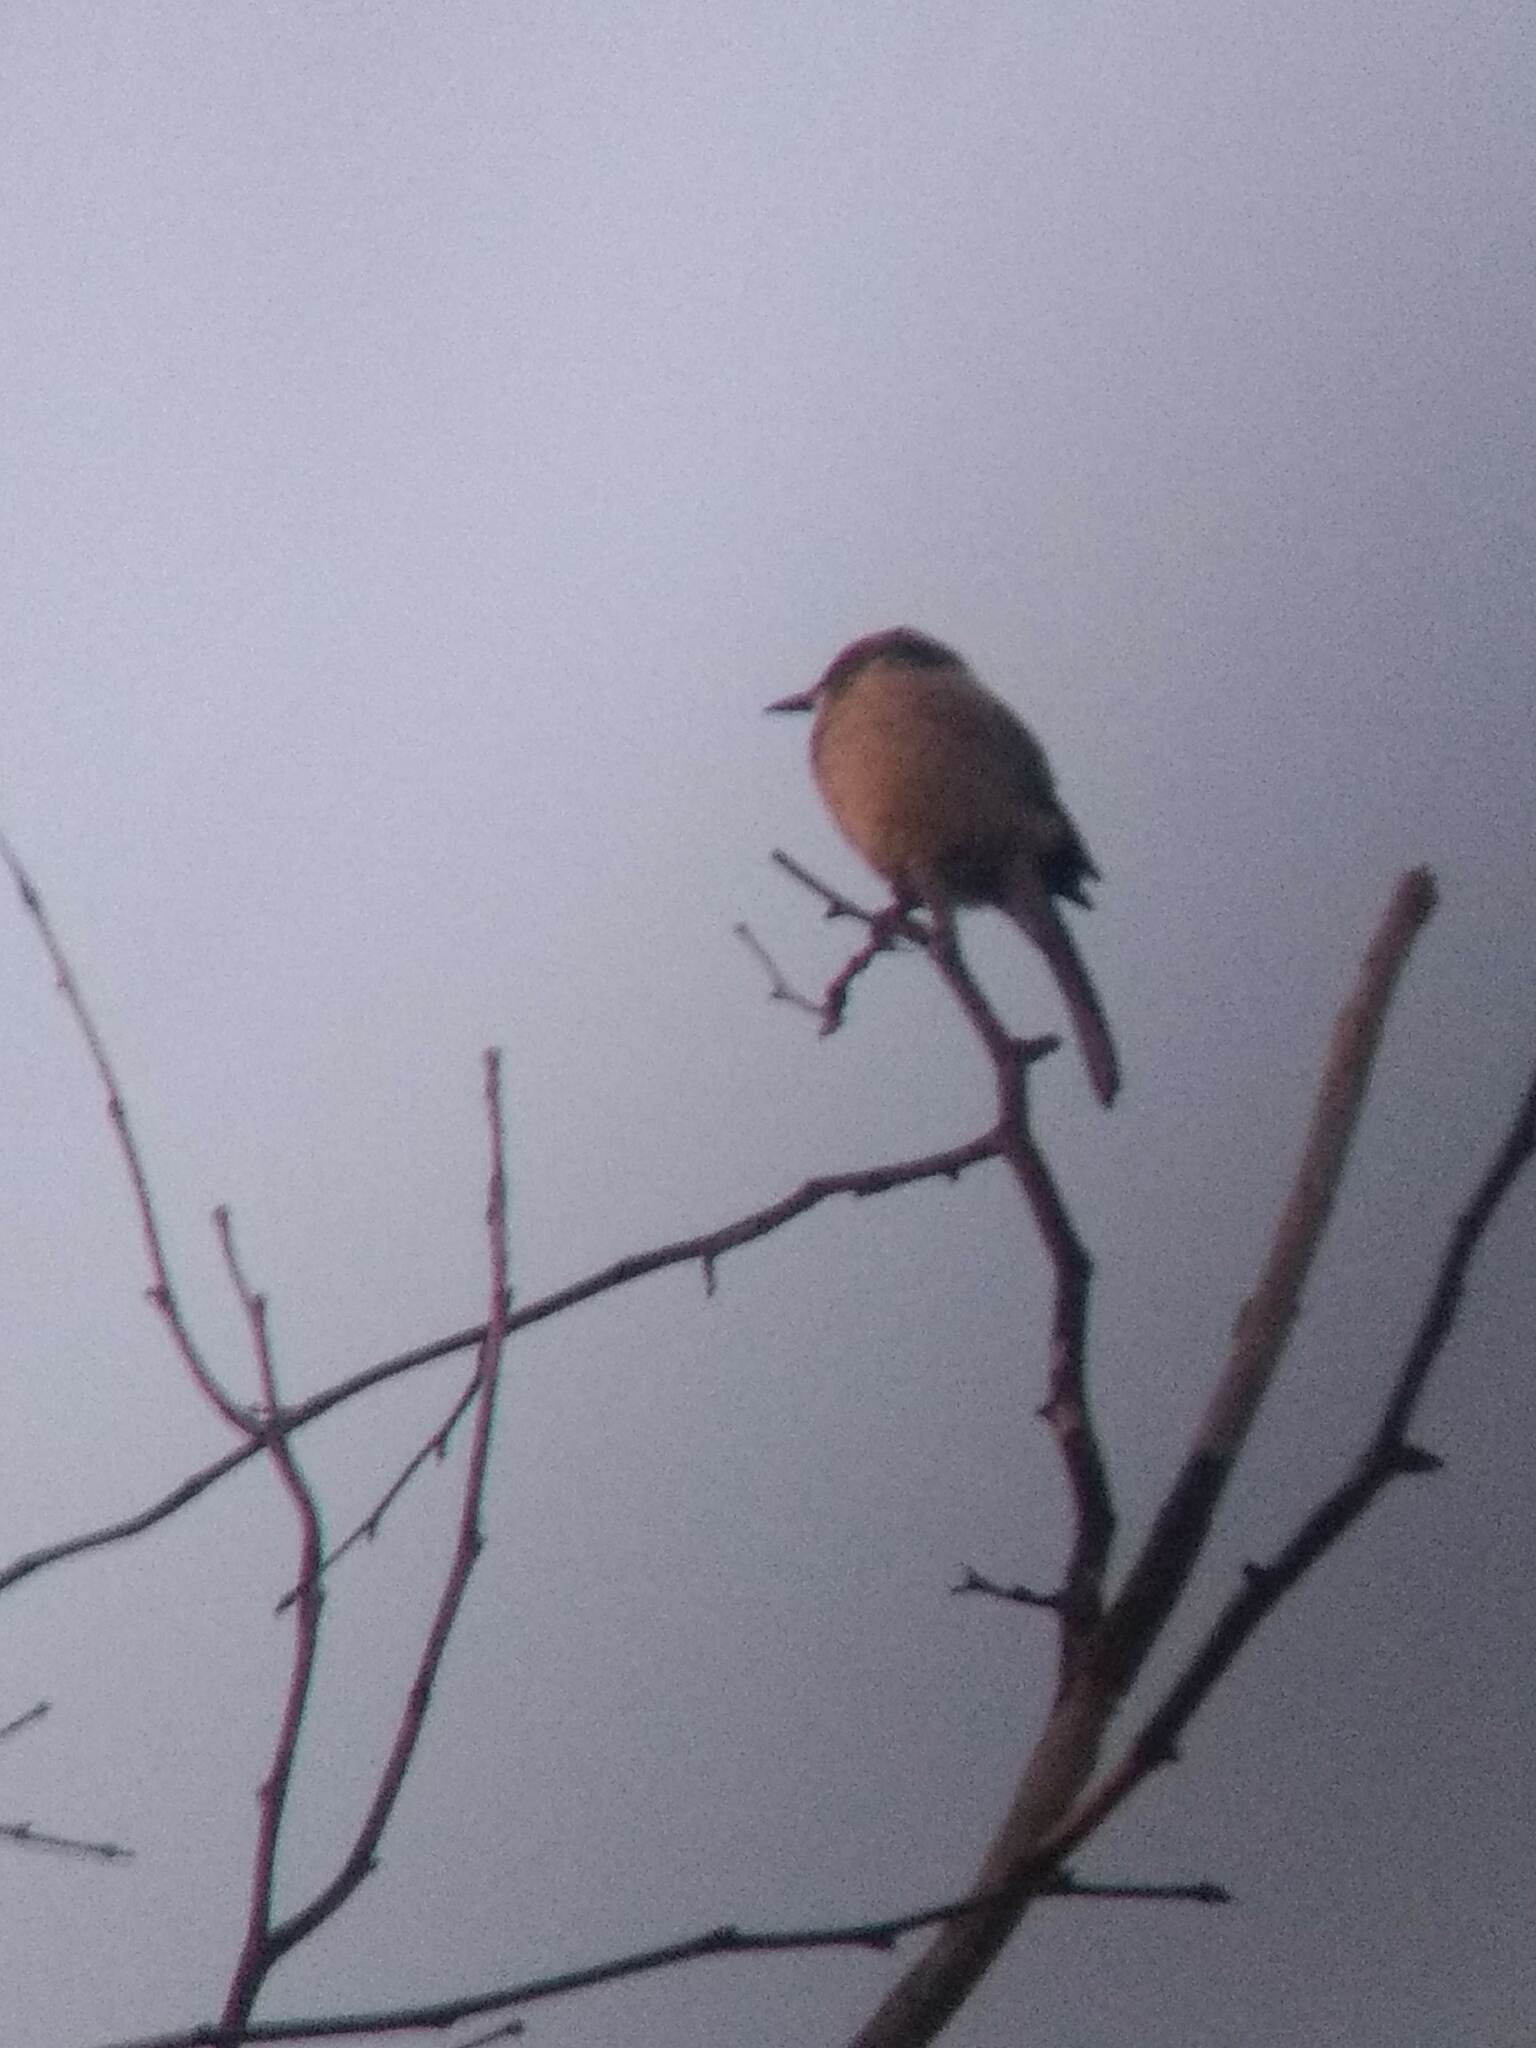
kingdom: Animalia
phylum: Chordata
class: Aves
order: Passeriformes
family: Corvidae
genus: Aphelocoma
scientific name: Aphelocoma californica
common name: California scrub-jay
